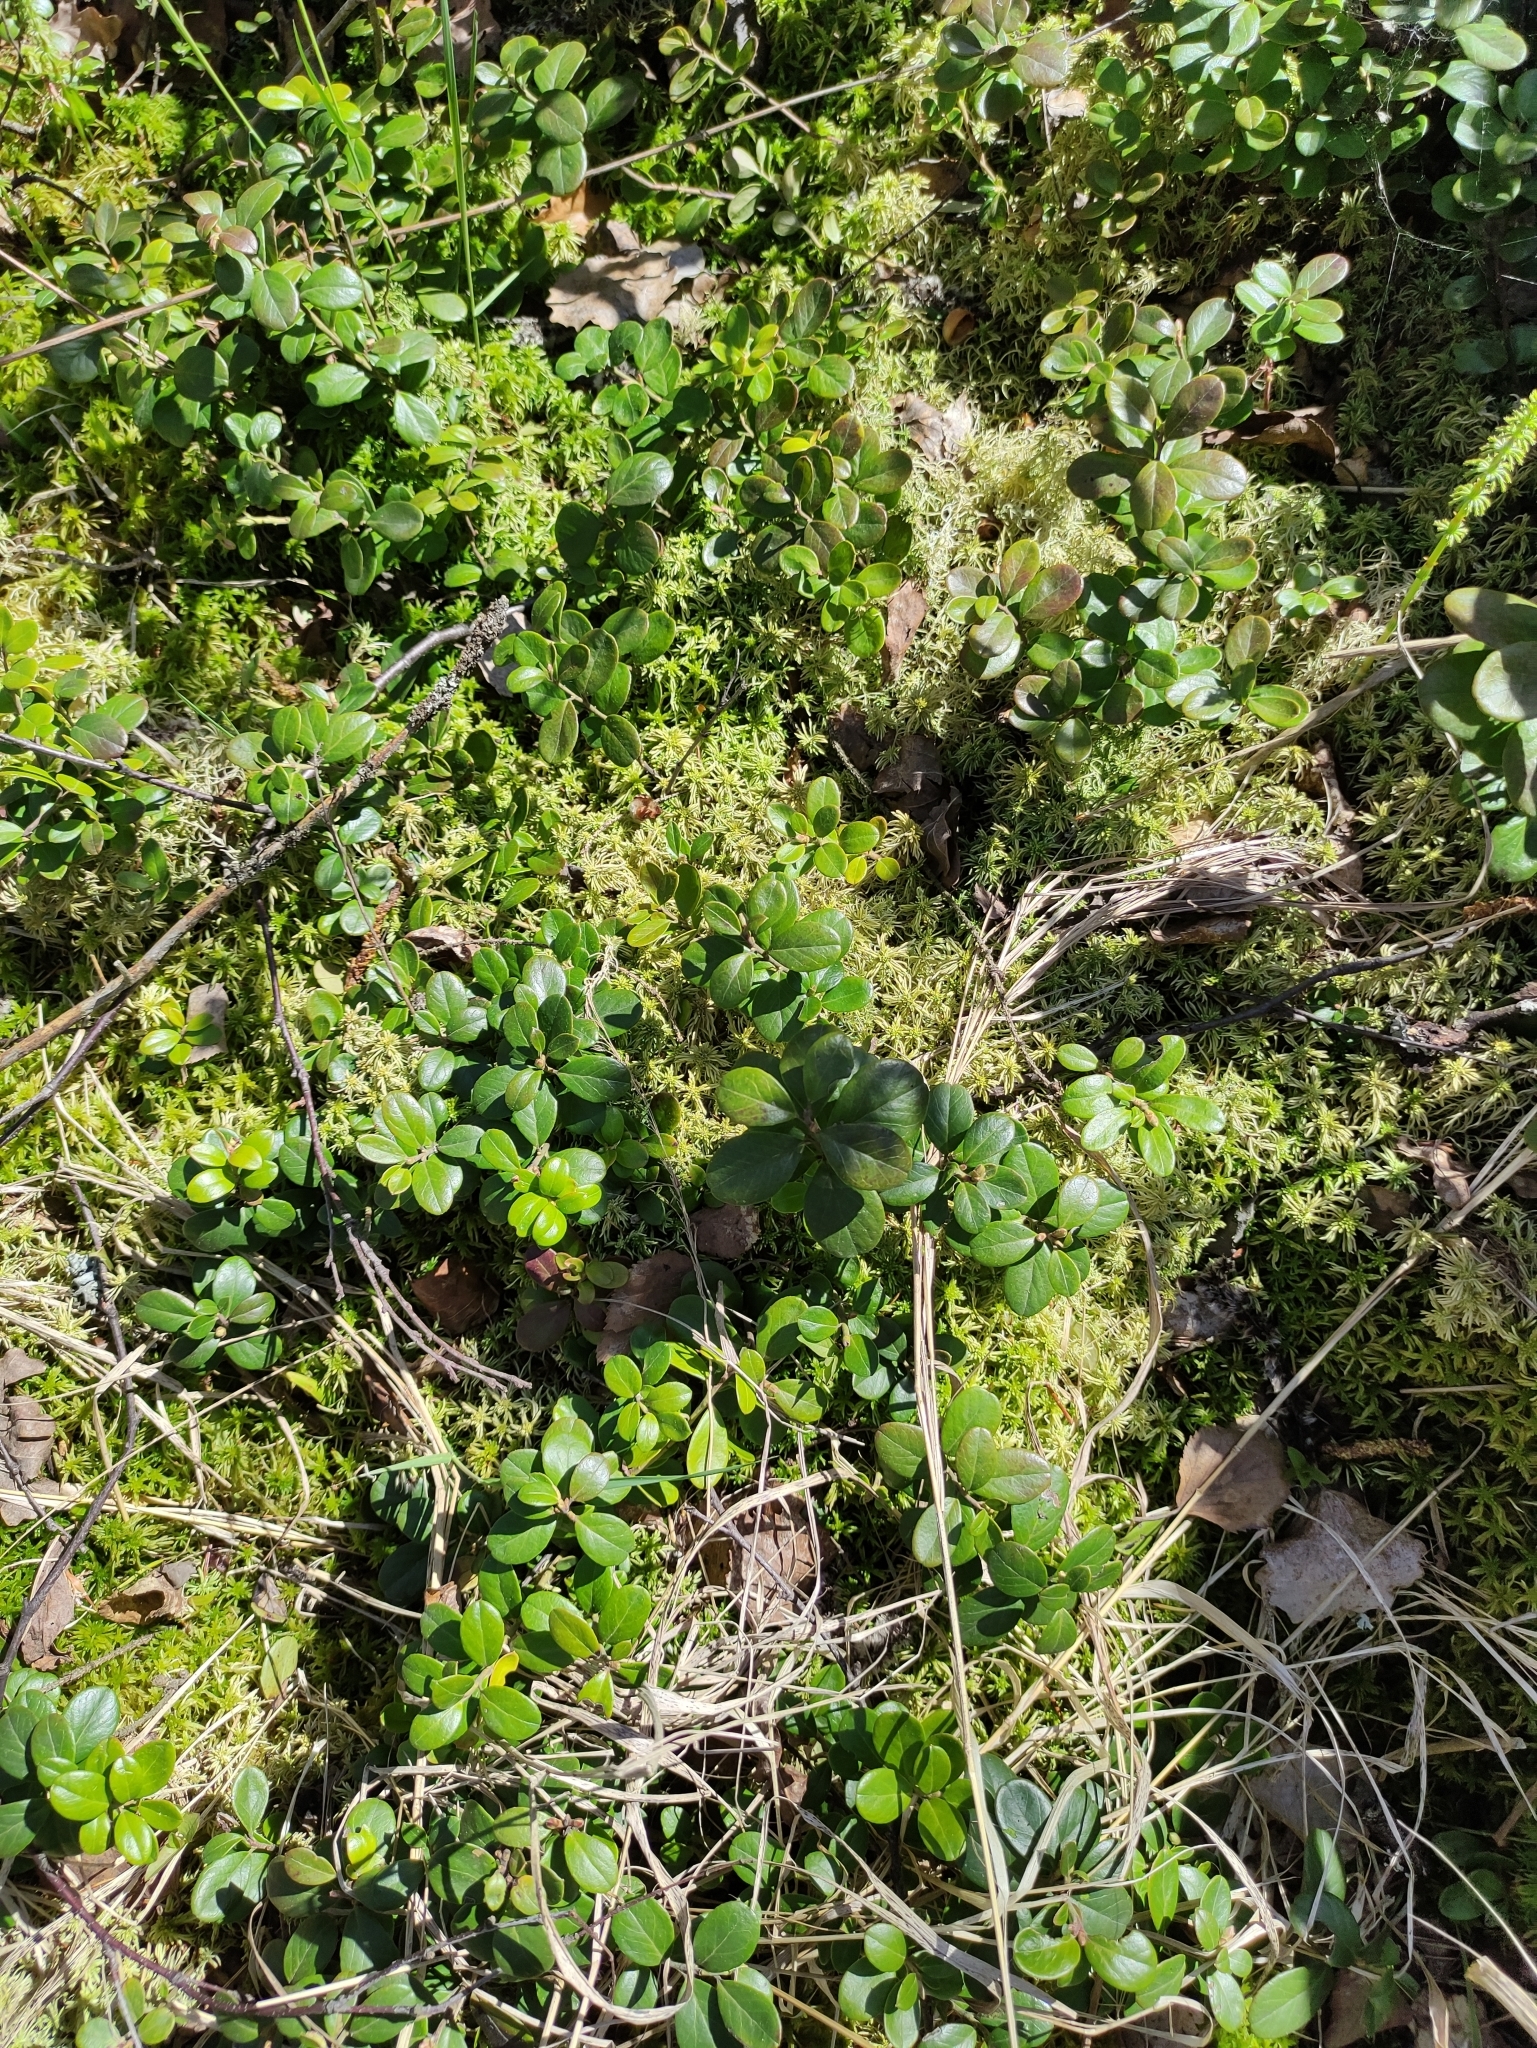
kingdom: Plantae
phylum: Tracheophyta
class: Magnoliopsida
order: Ericales
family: Ericaceae
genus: Vaccinium
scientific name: Vaccinium vitis-idaea
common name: Cowberry
